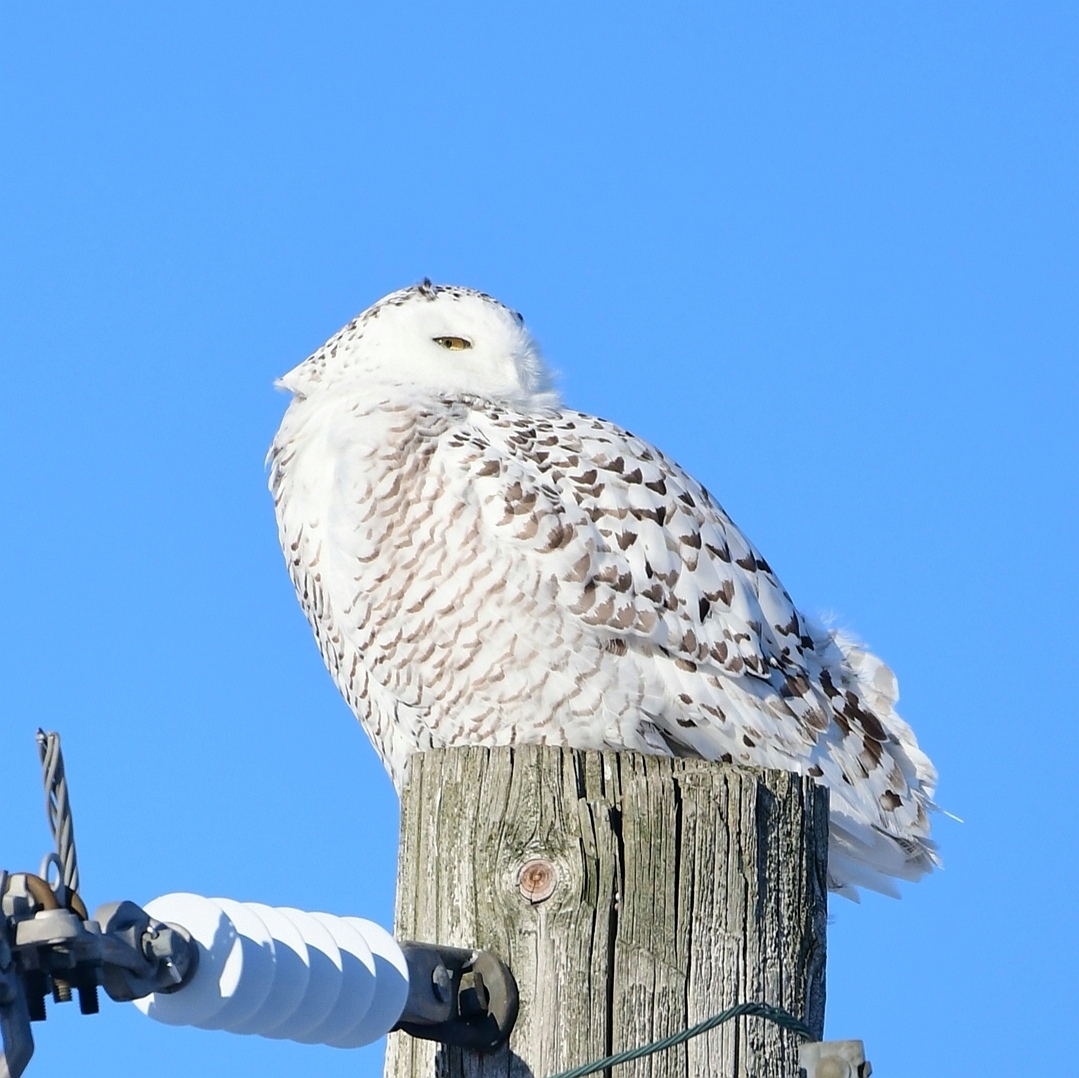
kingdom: Animalia
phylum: Chordata
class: Aves
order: Strigiformes
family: Strigidae
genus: Bubo
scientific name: Bubo scandiacus
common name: Snowy owl
